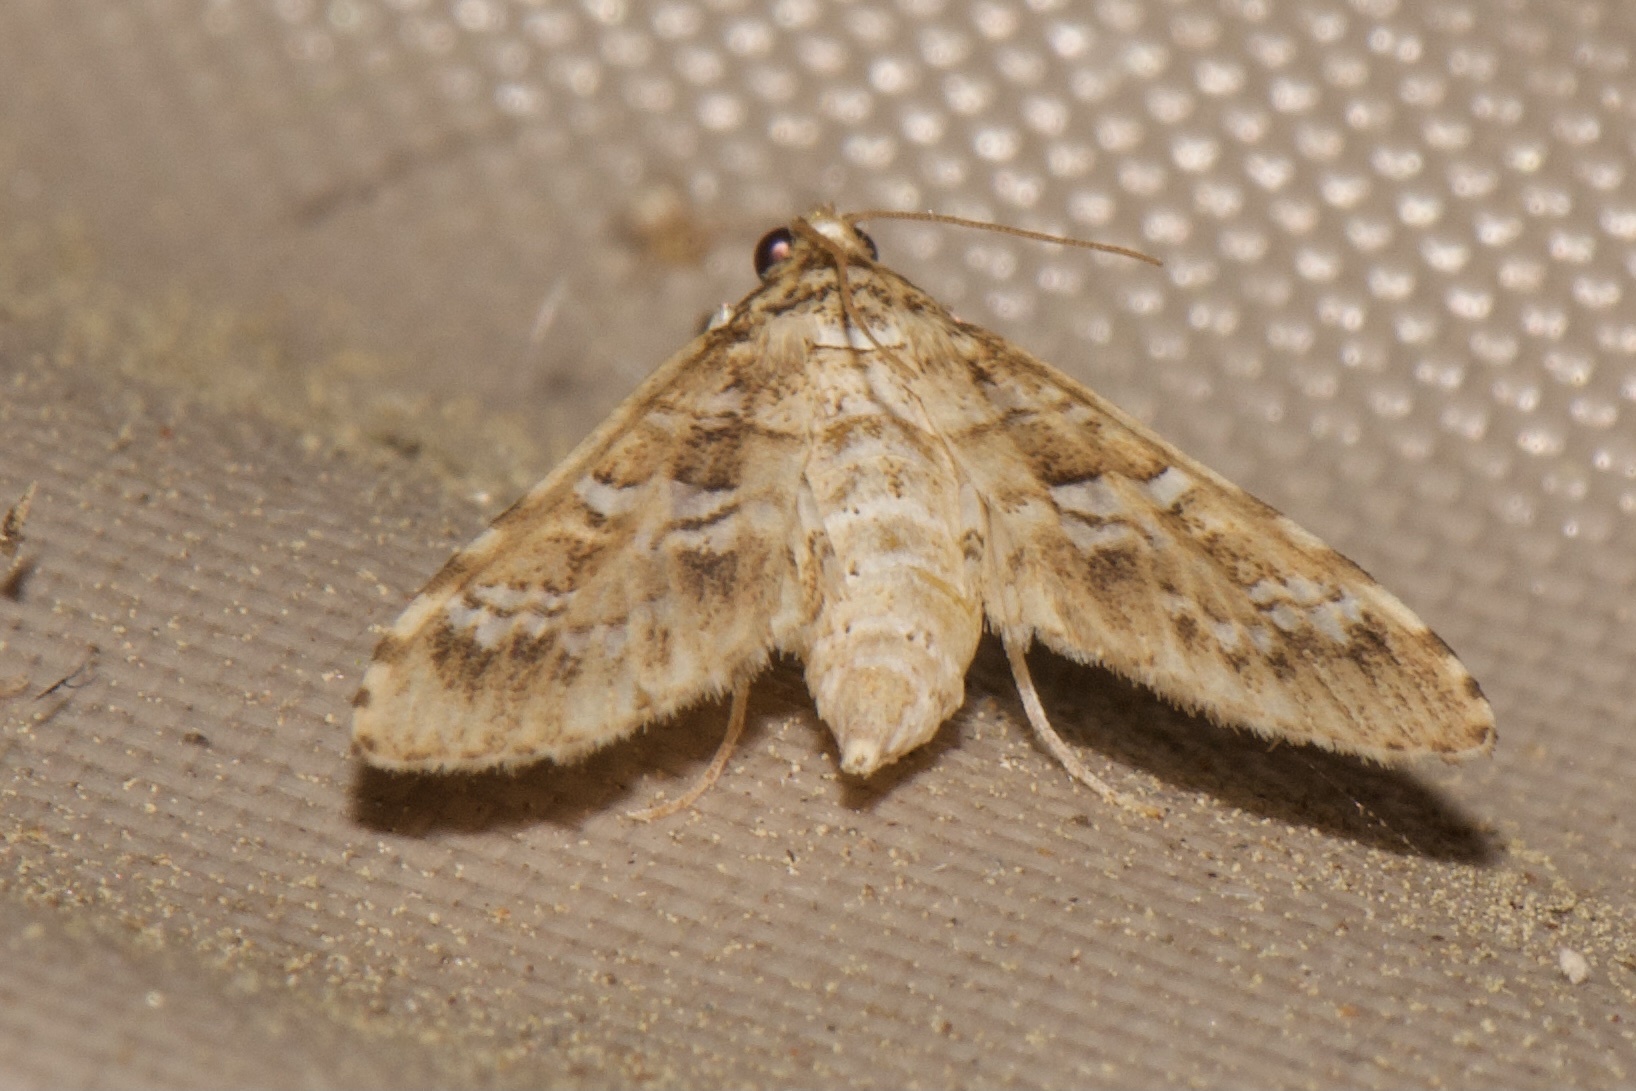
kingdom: Animalia
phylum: Arthropoda
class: Insecta
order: Lepidoptera
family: Crambidae
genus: Samea
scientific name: Samea multiplicalis
